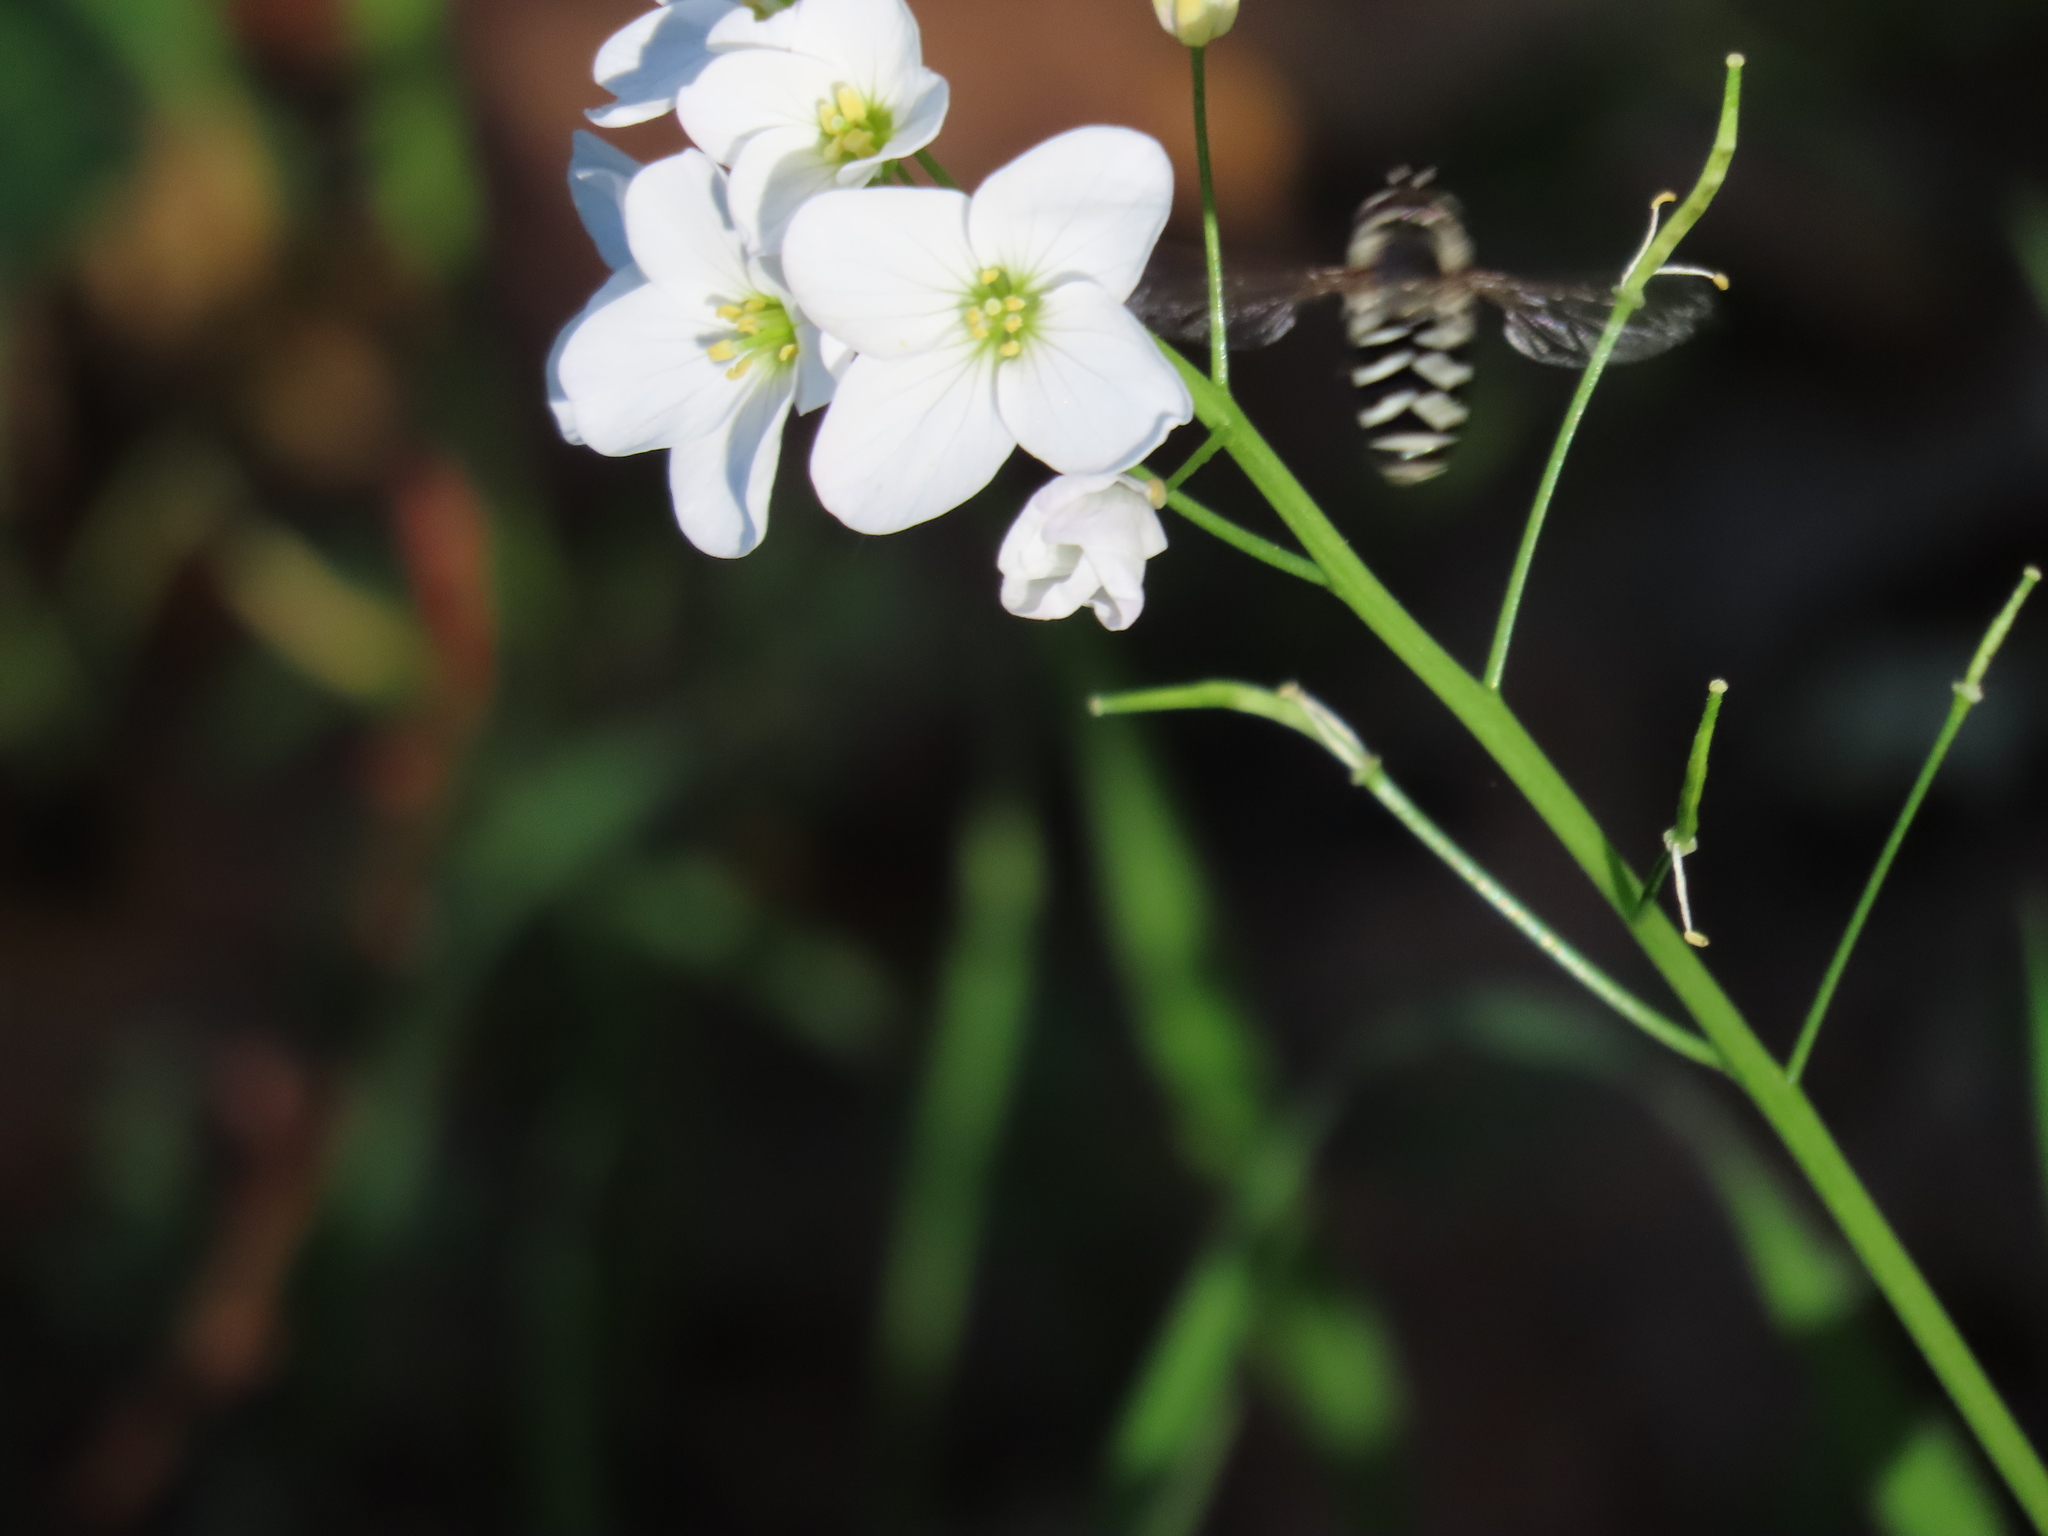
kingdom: Animalia
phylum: Arthropoda
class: Insecta
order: Diptera
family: Syrphidae
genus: Scaeva
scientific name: Scaeva affinis
